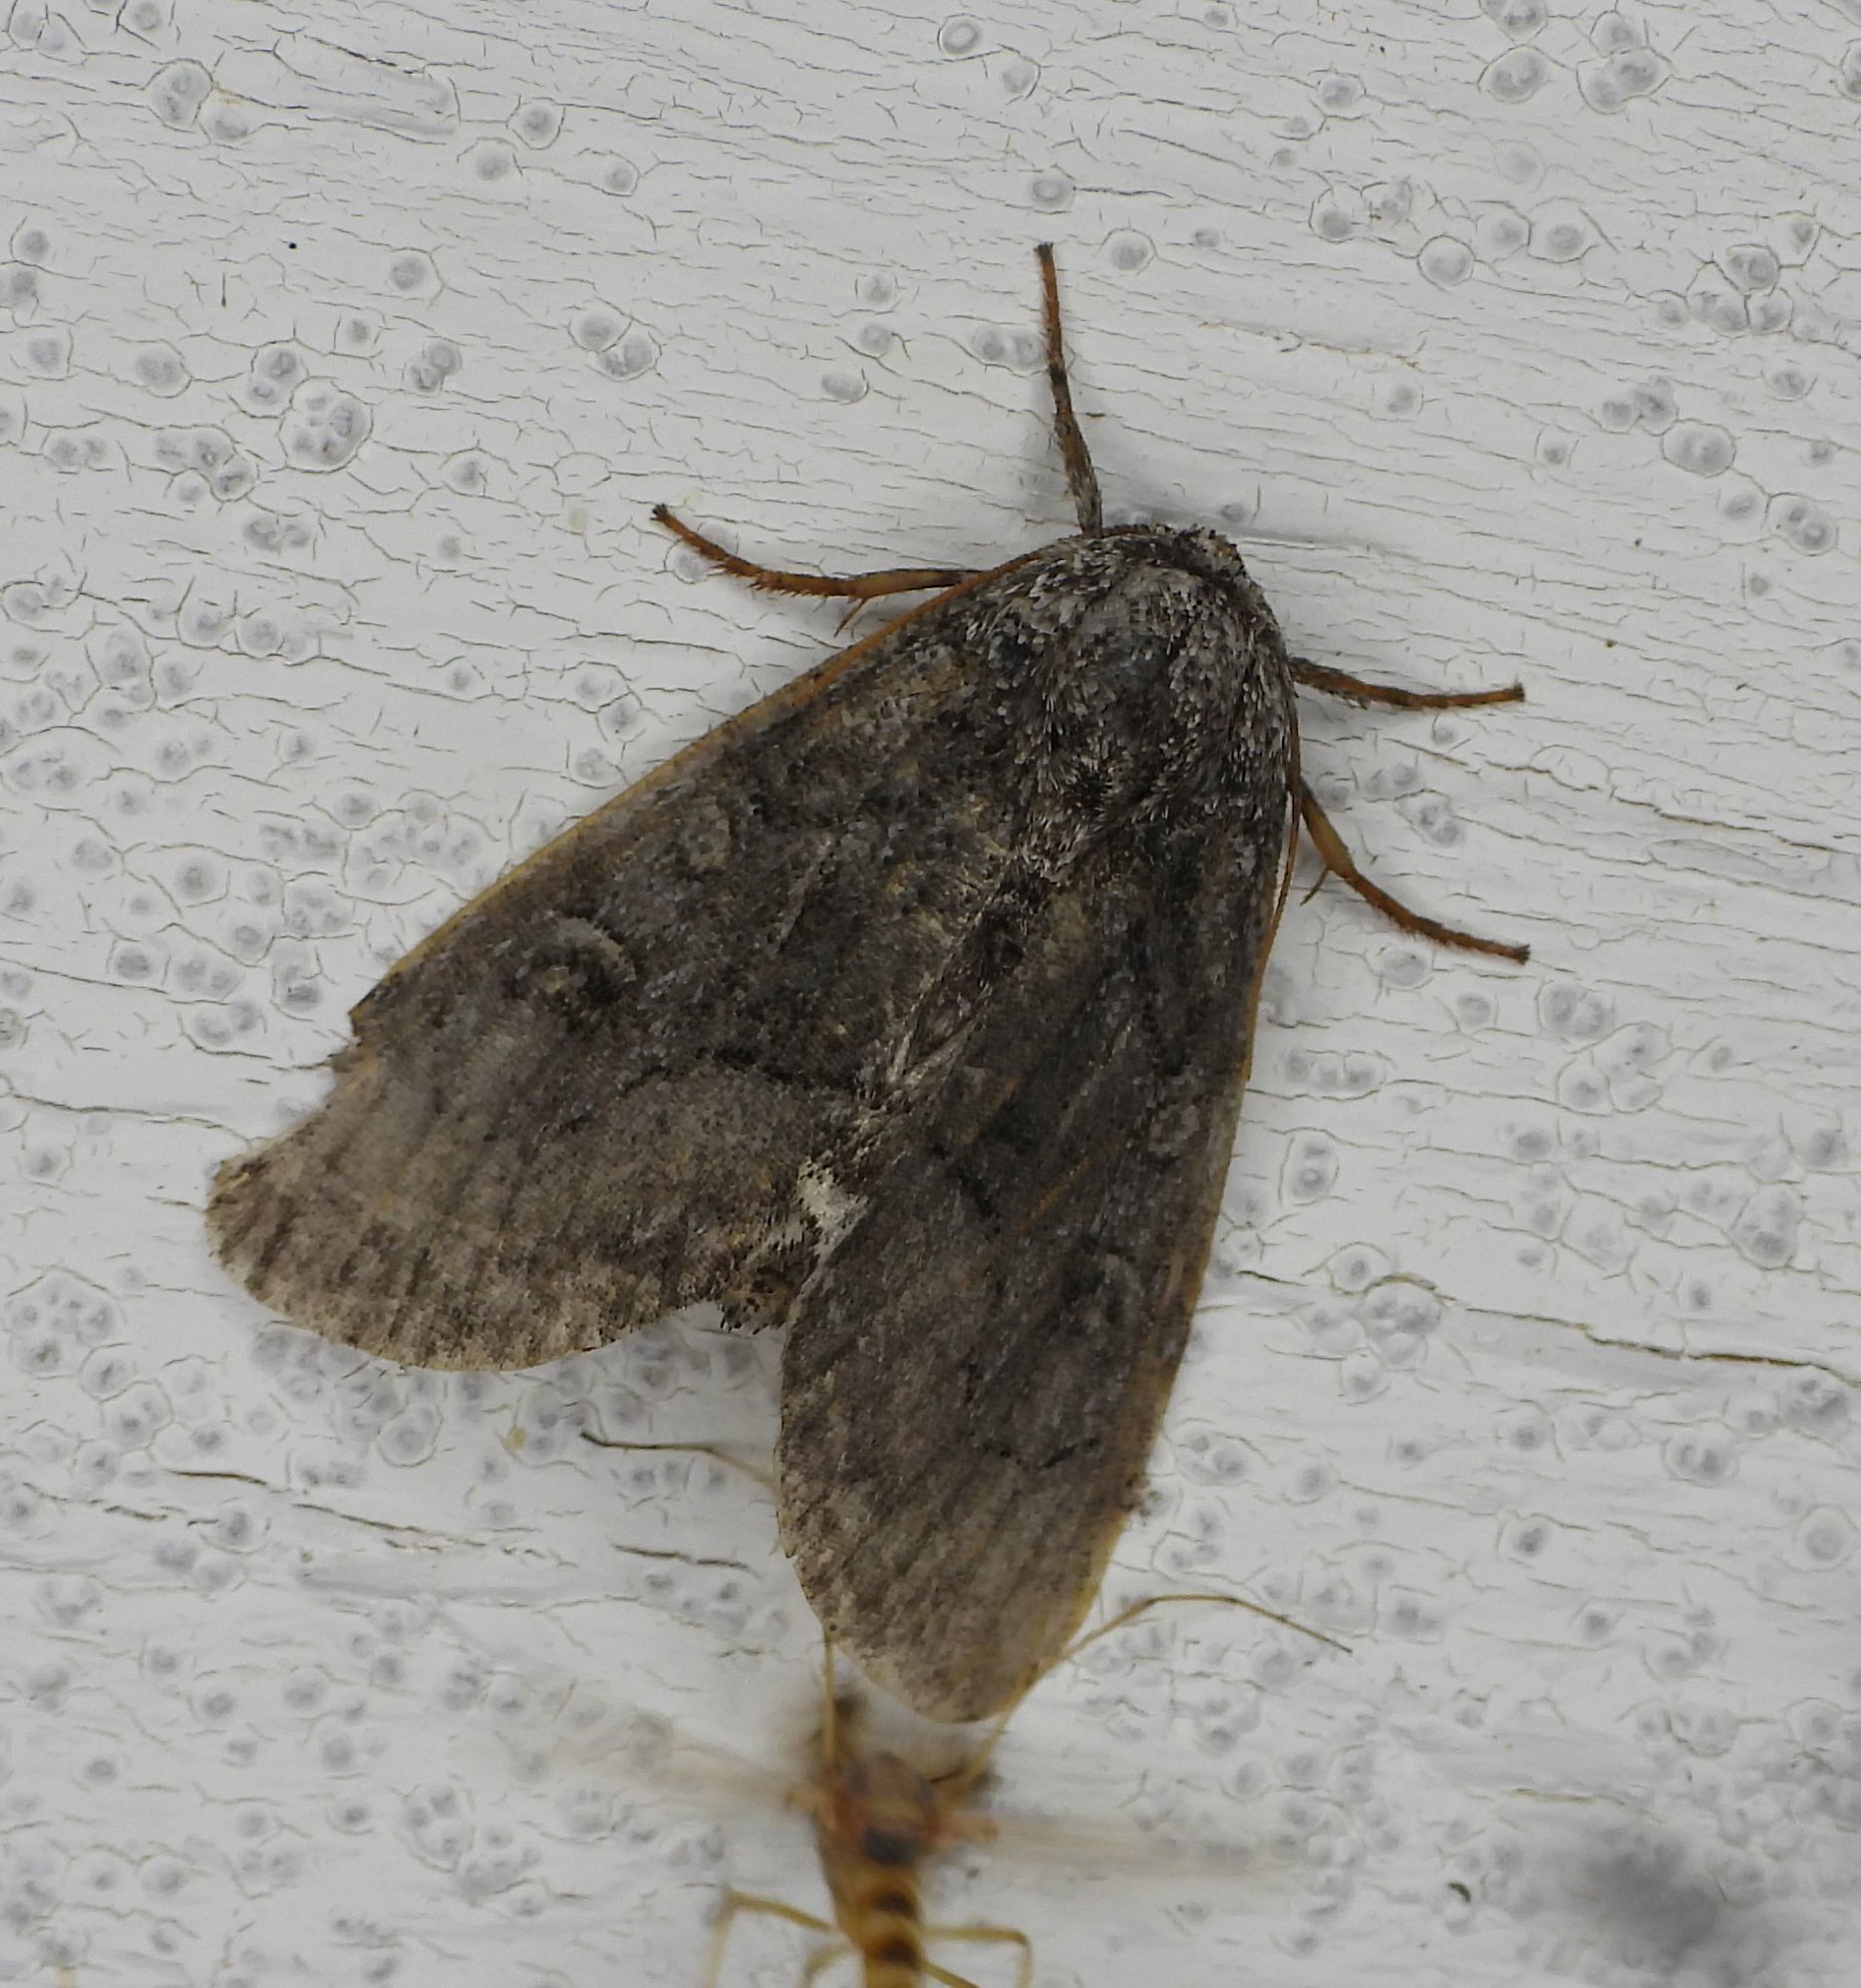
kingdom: Animalia
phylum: Arthropoda
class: Insecta
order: Lepidoptera
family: Noctuidae
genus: Raphia
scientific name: Raphia frater
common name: Brother
